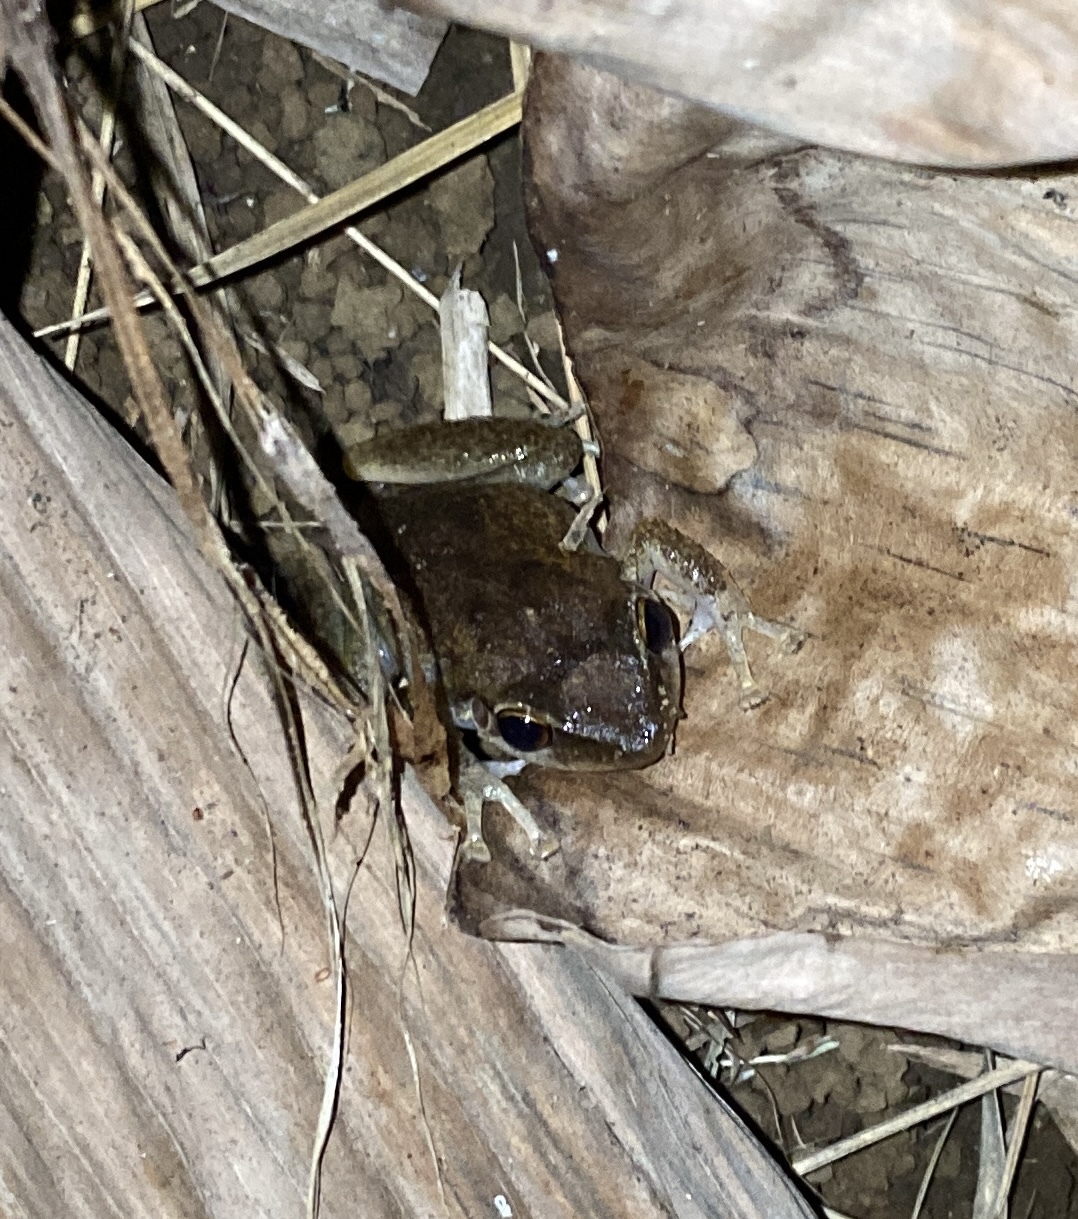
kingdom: Animalia
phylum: Chordata
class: Amphibia
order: Anura
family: Eleutherodactylidae
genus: Eleutherodactylus
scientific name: Eleutherodactylus coqui
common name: Coqui frog
